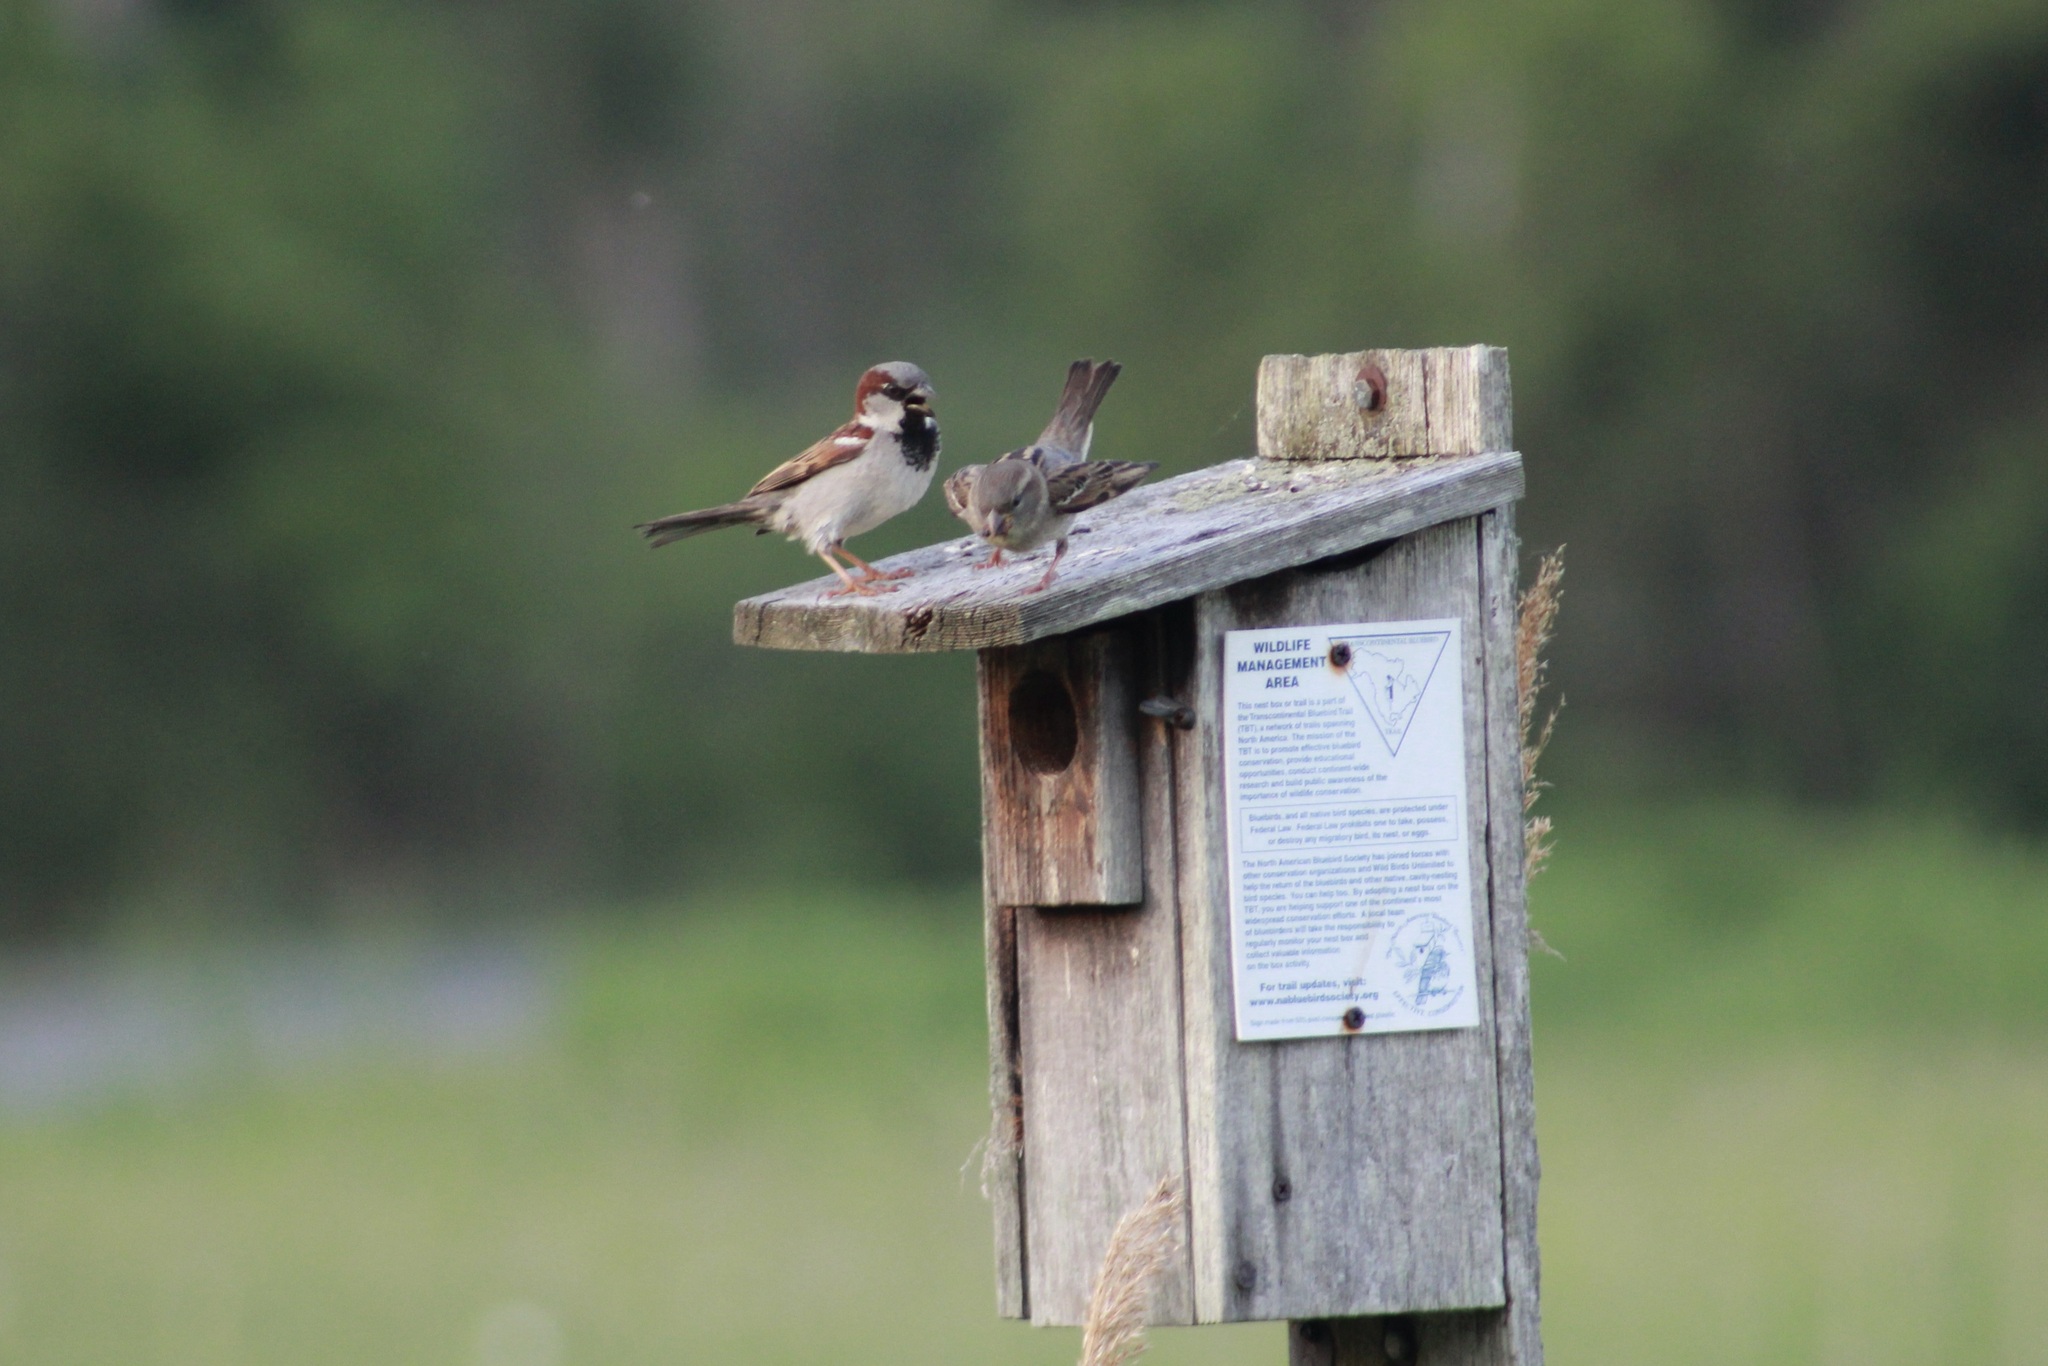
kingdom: Animalia
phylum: Chordata
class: Aves
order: Passeriformes
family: Passeridae
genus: Passer
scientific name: Passer domesticus
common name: House sparrow
